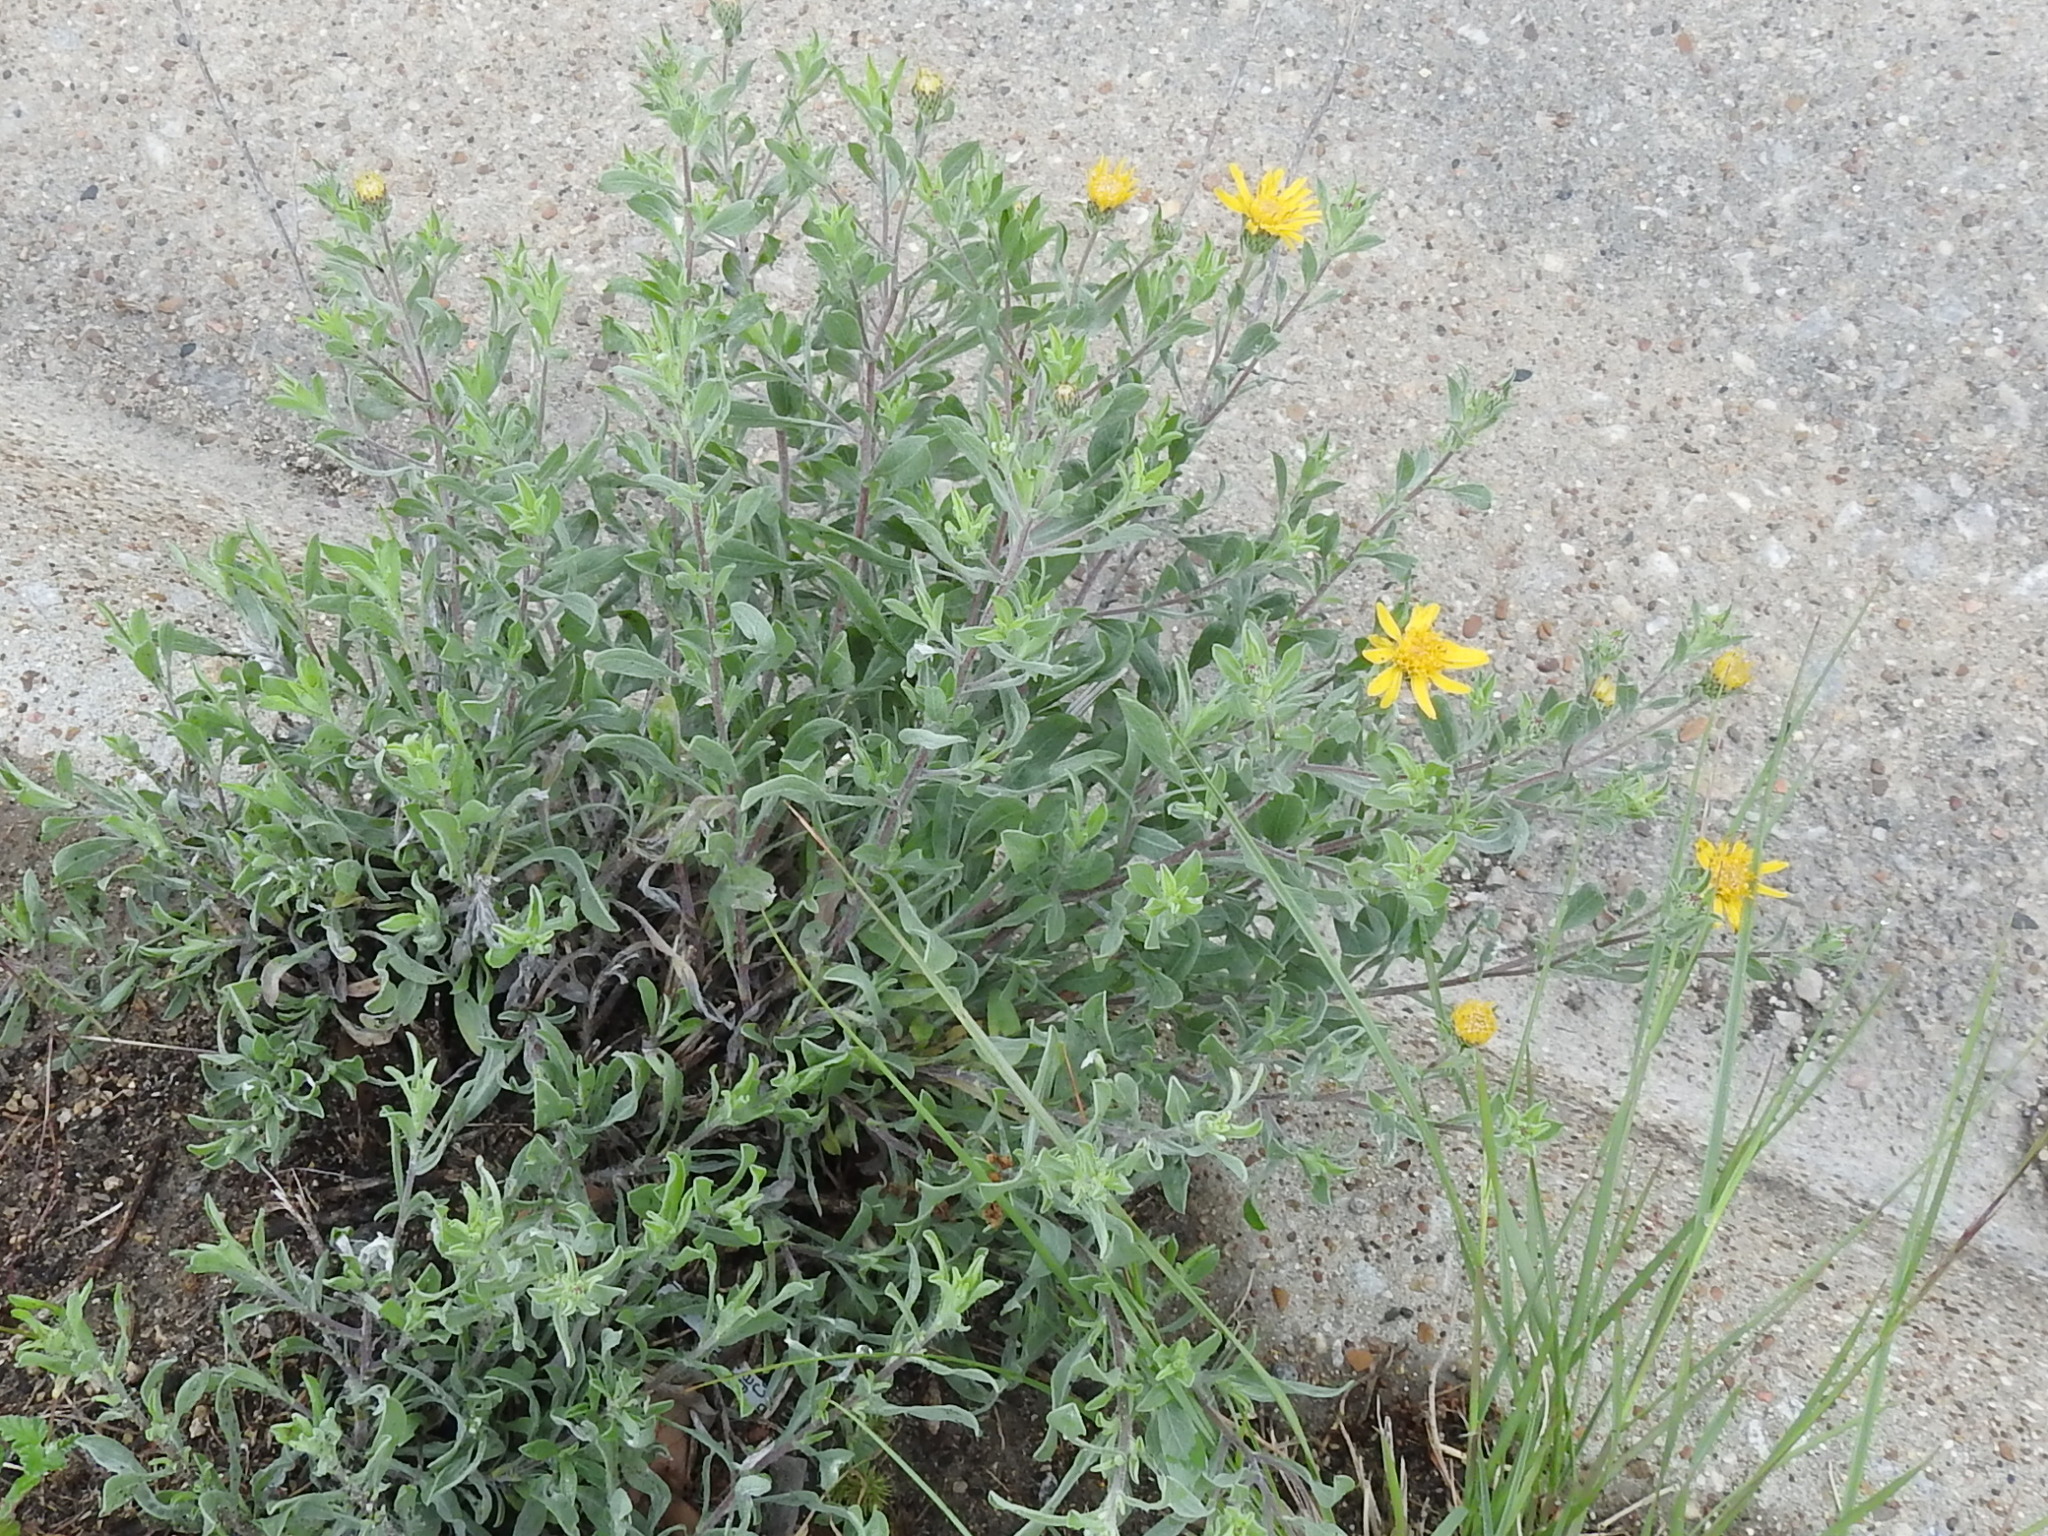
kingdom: Plantae
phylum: Tracheophyta
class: Magnoliopsida
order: Asterales
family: Asteraceae
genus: Heterotheca
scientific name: Heterotheca canescens
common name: Hoary golden-aster
